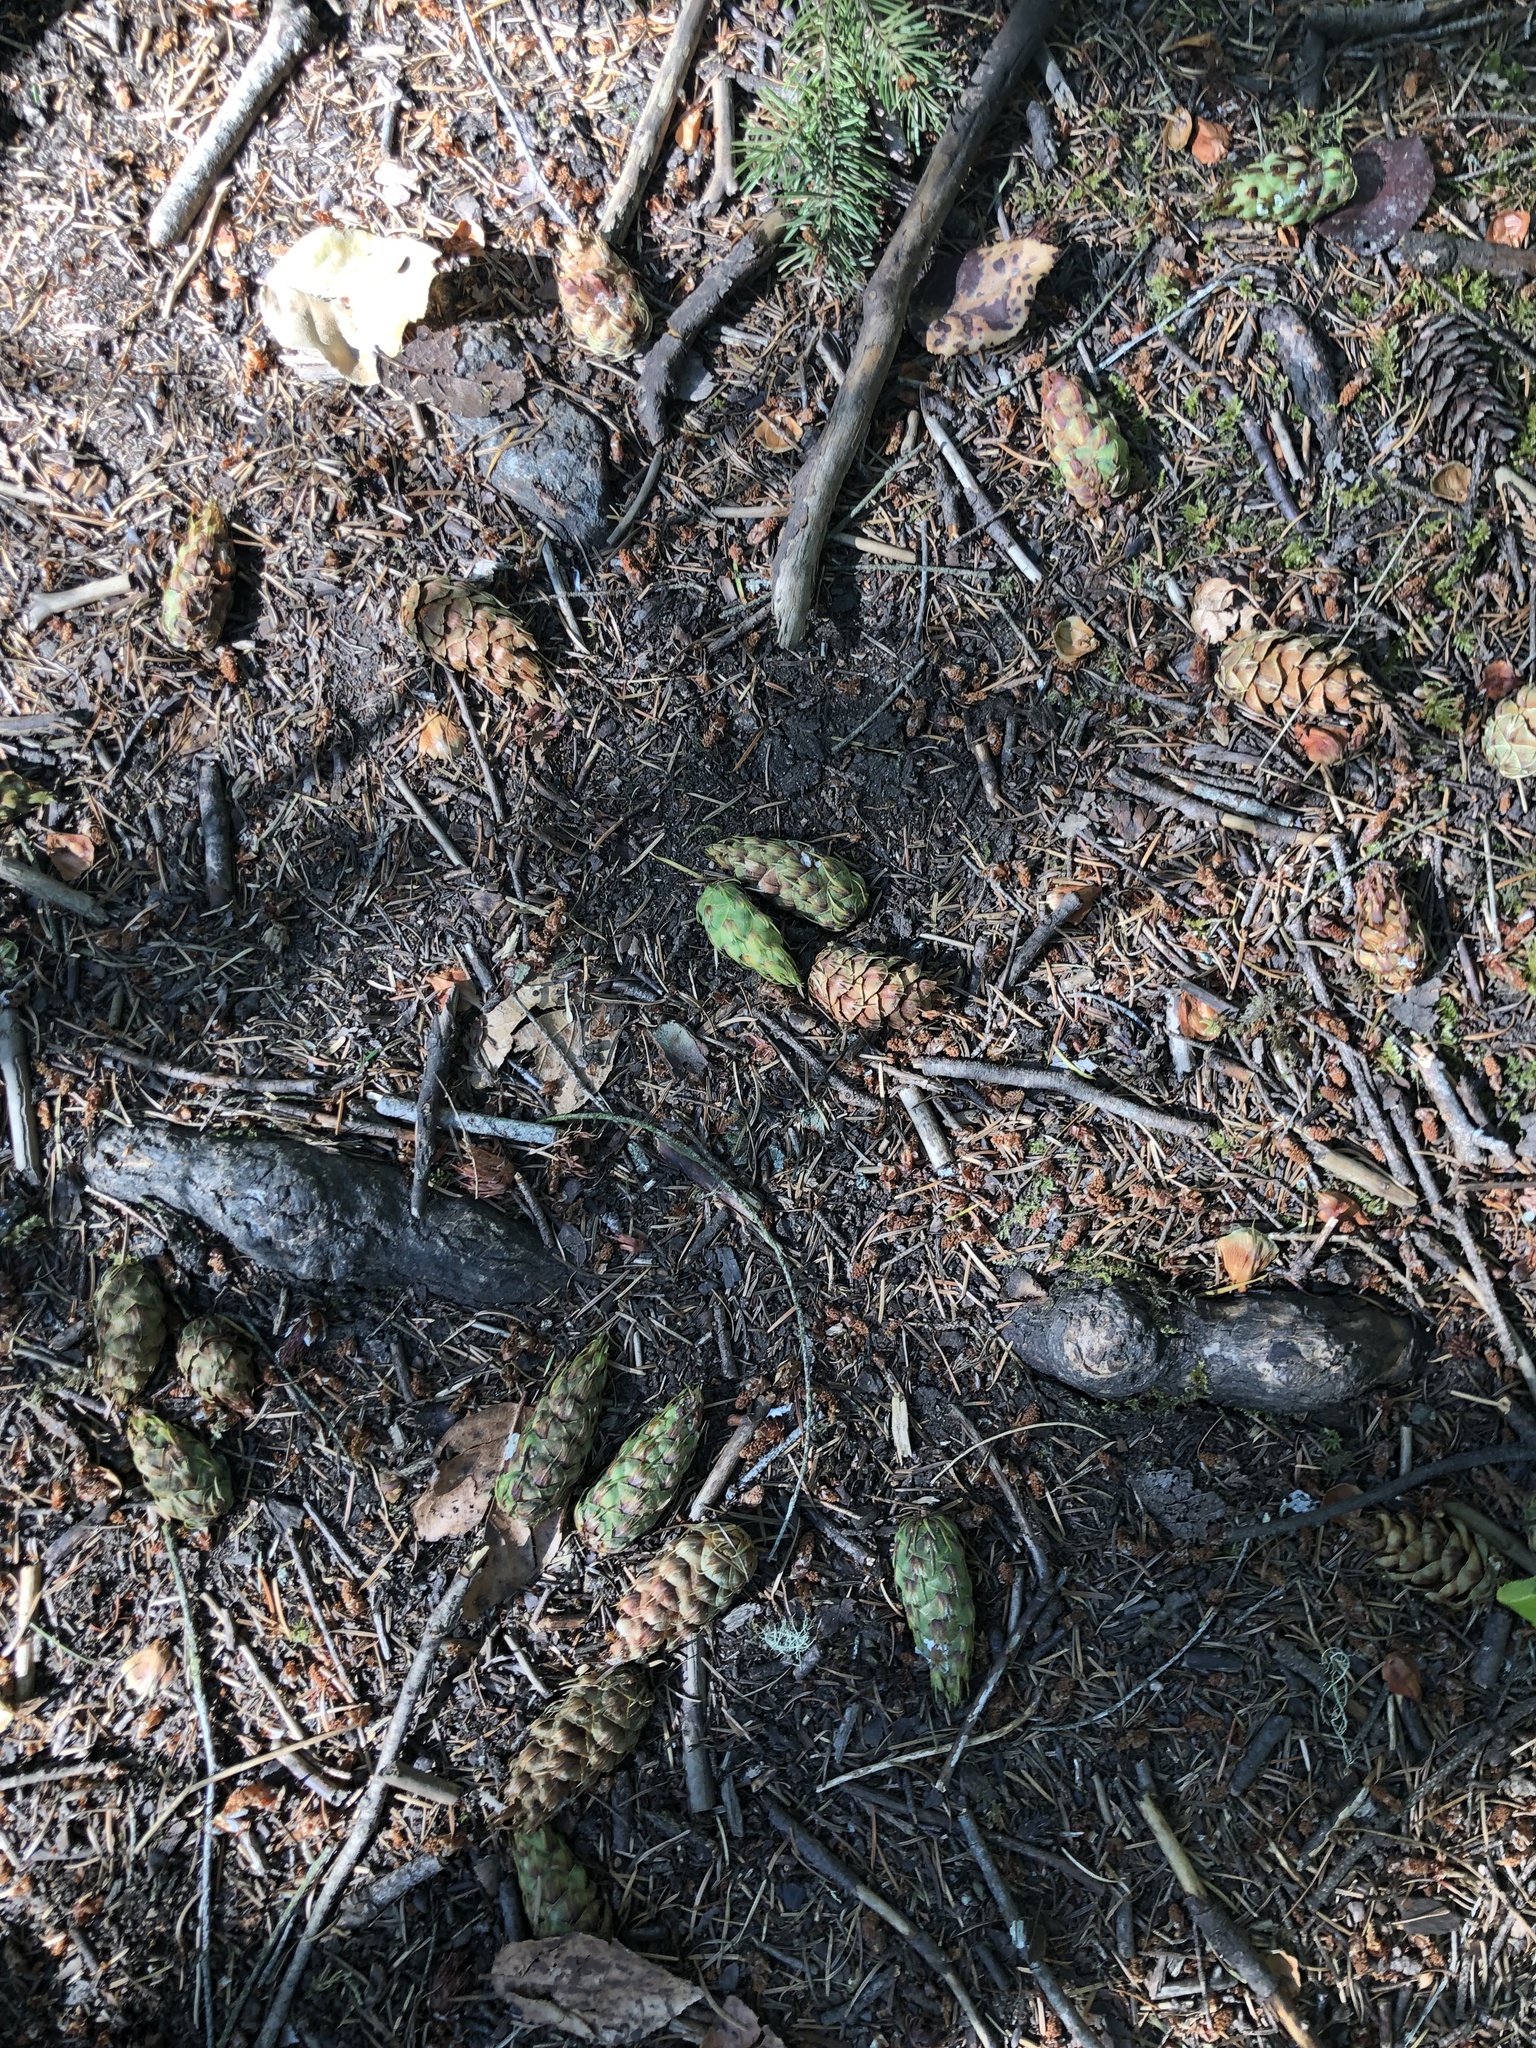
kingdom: Plantae
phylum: Tracheophyta
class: Pinopsida
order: Pinales
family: Pinaceae
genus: Pseudotsuga
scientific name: Pseudotsuga menziesii
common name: Douglas fir
